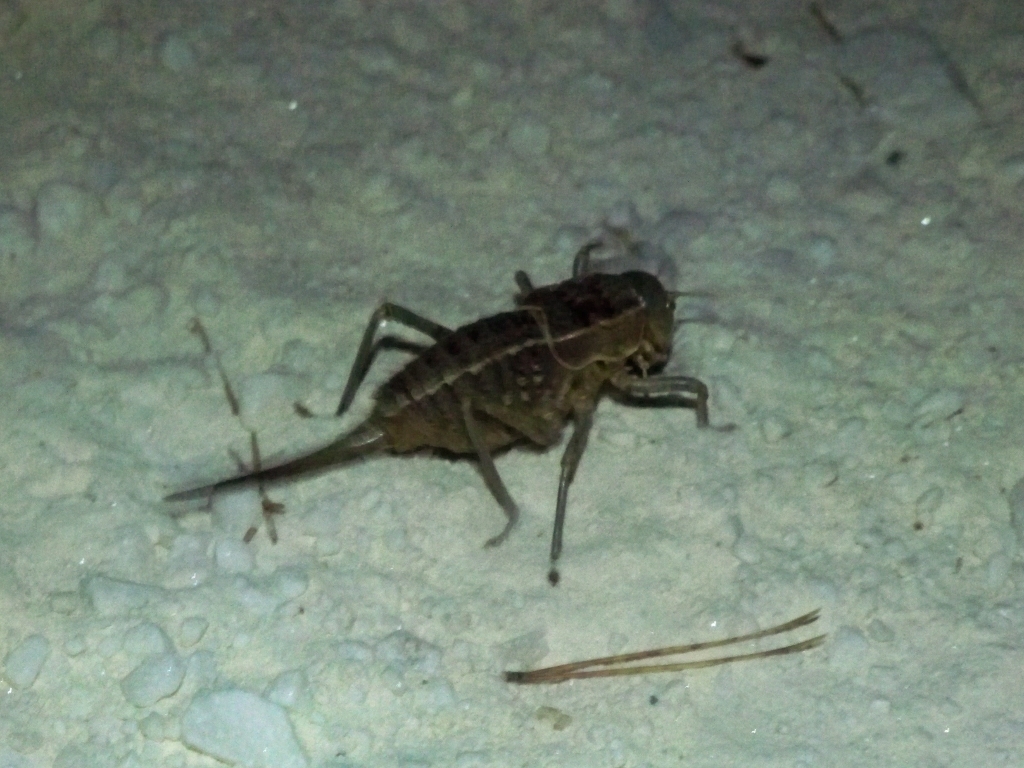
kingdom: Animalia
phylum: Arthropoda
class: Insecta
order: Orthoptera
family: Tettigoniidae
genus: Pycnogaster
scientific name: Pycnogaster algecirensis
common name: Algeciras saddle bush-cricket
